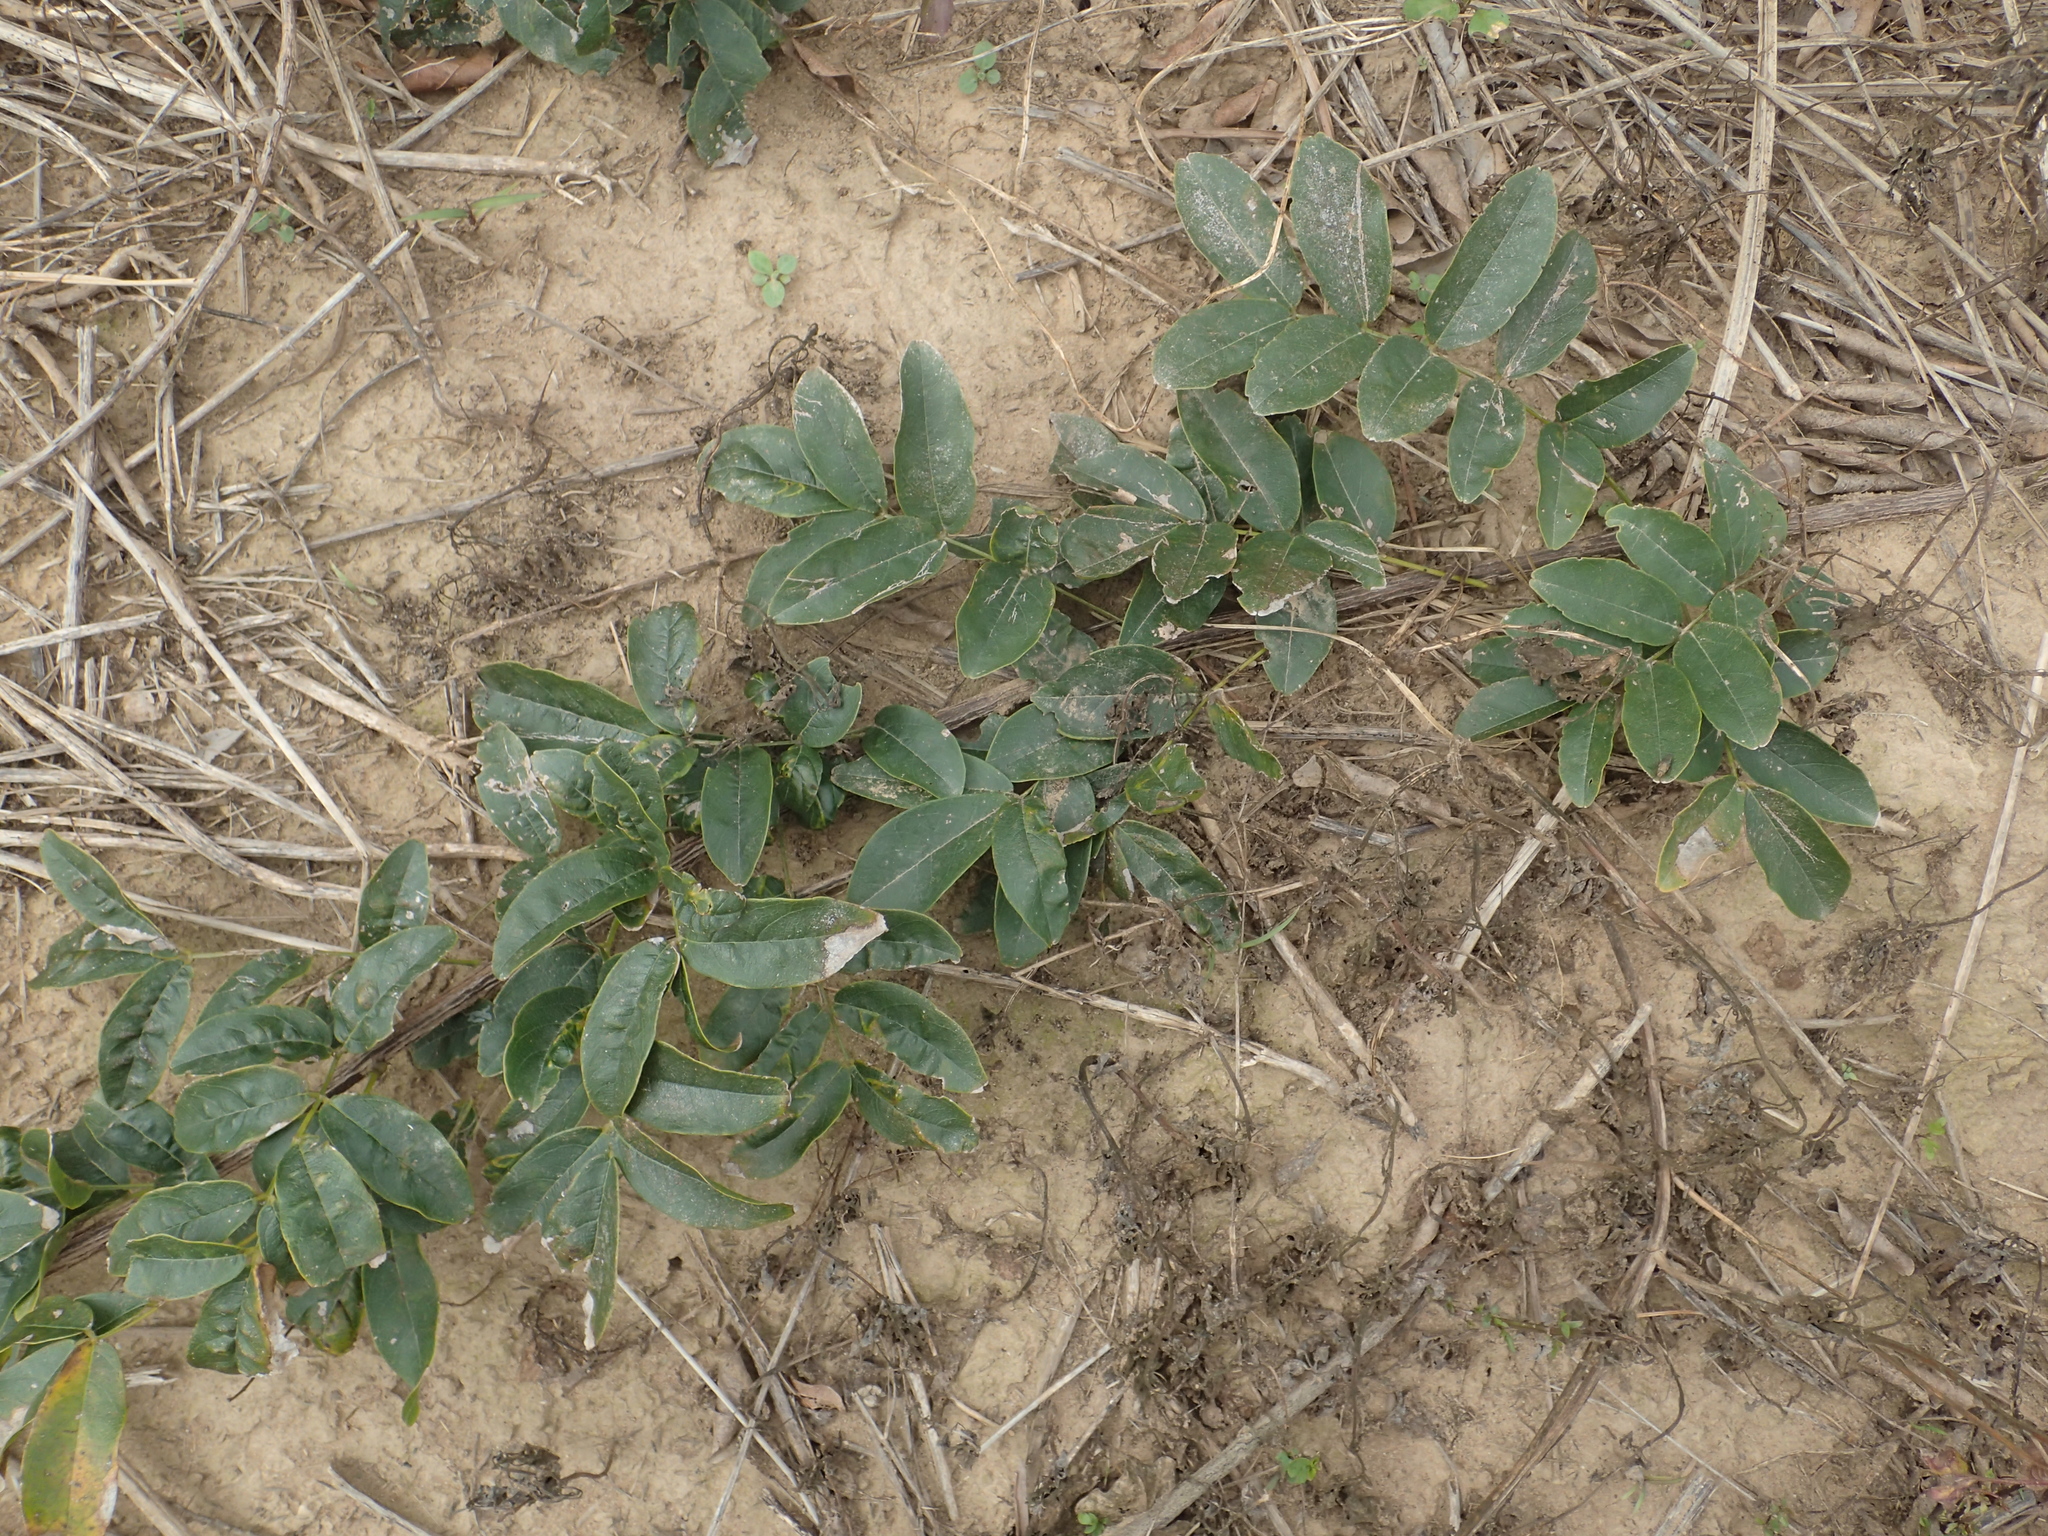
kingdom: Plantae
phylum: Tracheophyta
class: Magnoliopsida
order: Fabales
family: Fabaceae
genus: Wisteriopsis
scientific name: Wisteriopsis reticulata
